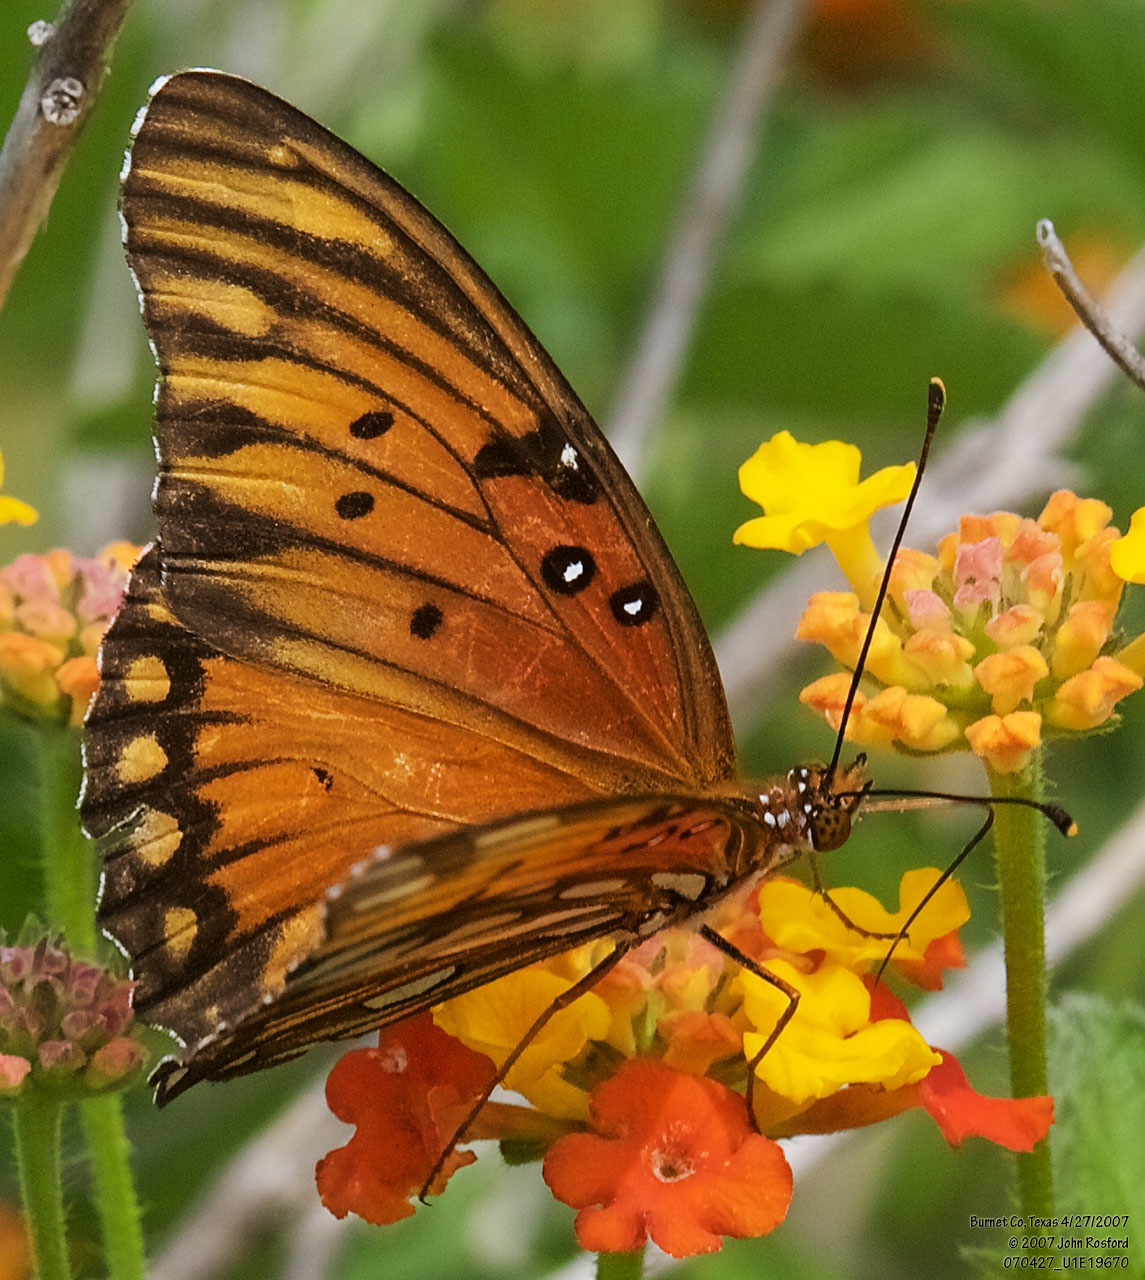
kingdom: Animalia
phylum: Arthropoda
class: Insecta
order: Lepidoptera
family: Nymphalidae
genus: Dione
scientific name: Dione vanillae
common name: Gulf fritillary
